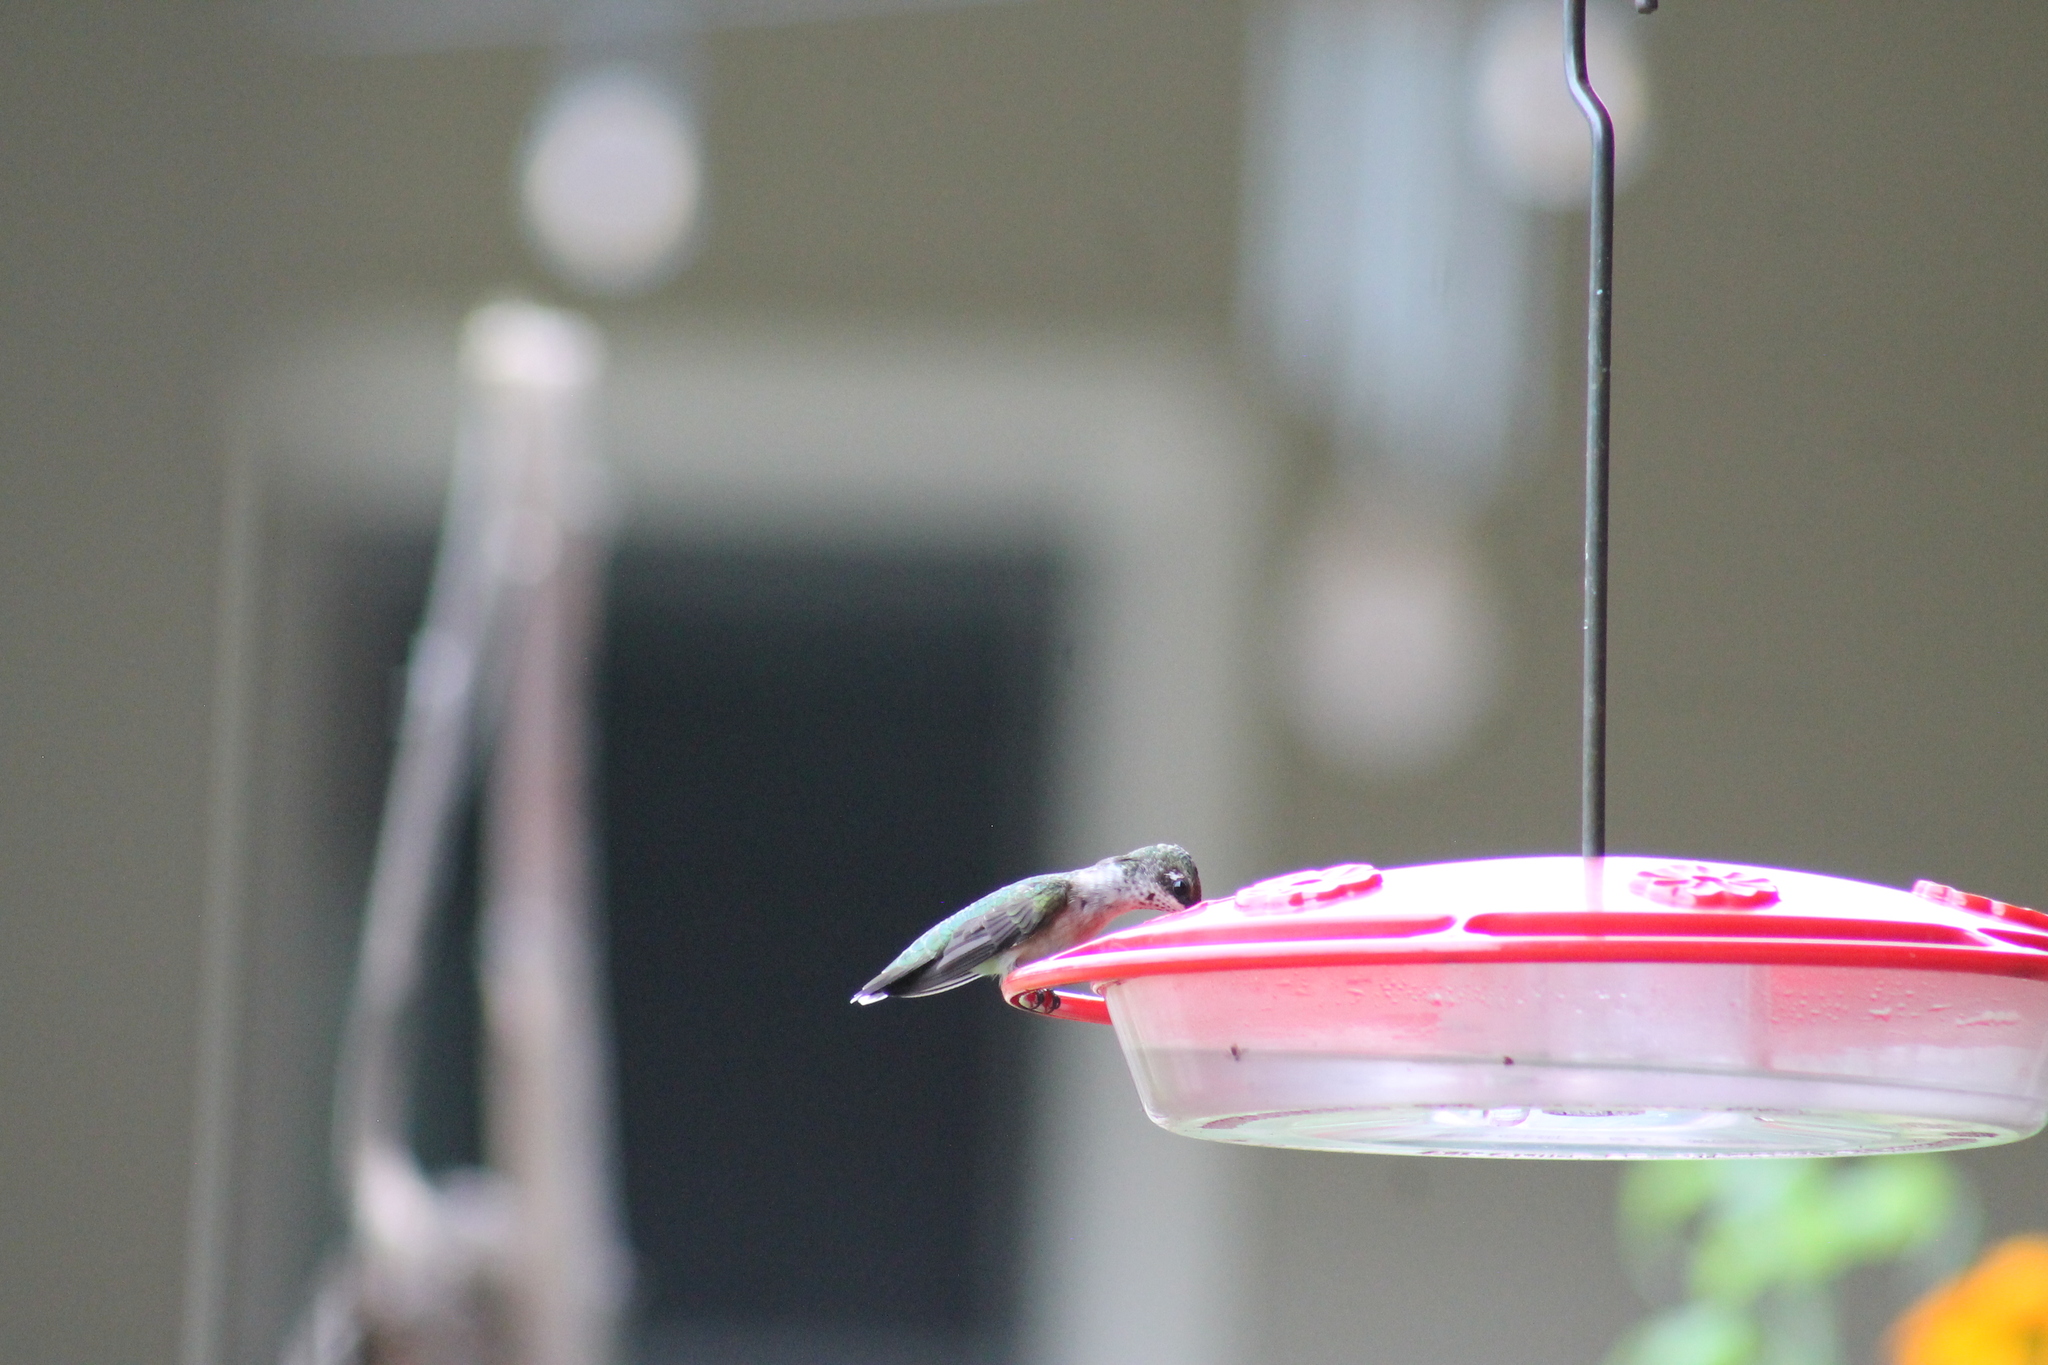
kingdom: Animalia
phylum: Chordata
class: Aves
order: Apodiformes
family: Trochilidae
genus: Archilochus
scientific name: Archilochus colubris
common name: Ruby-throated hummingbird
